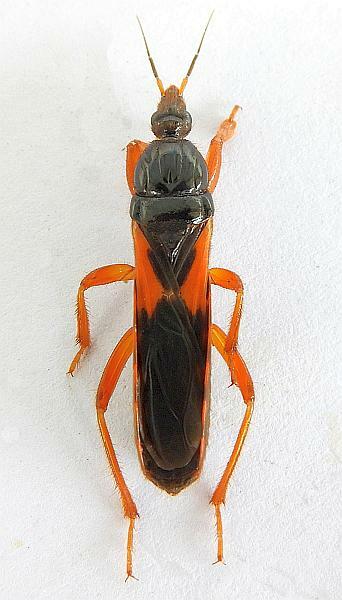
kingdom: Animalia
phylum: Arthropoda
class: Insecta
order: Hemiptera
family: Reduviidae
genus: Sirthenea
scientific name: Sirthenea stria
